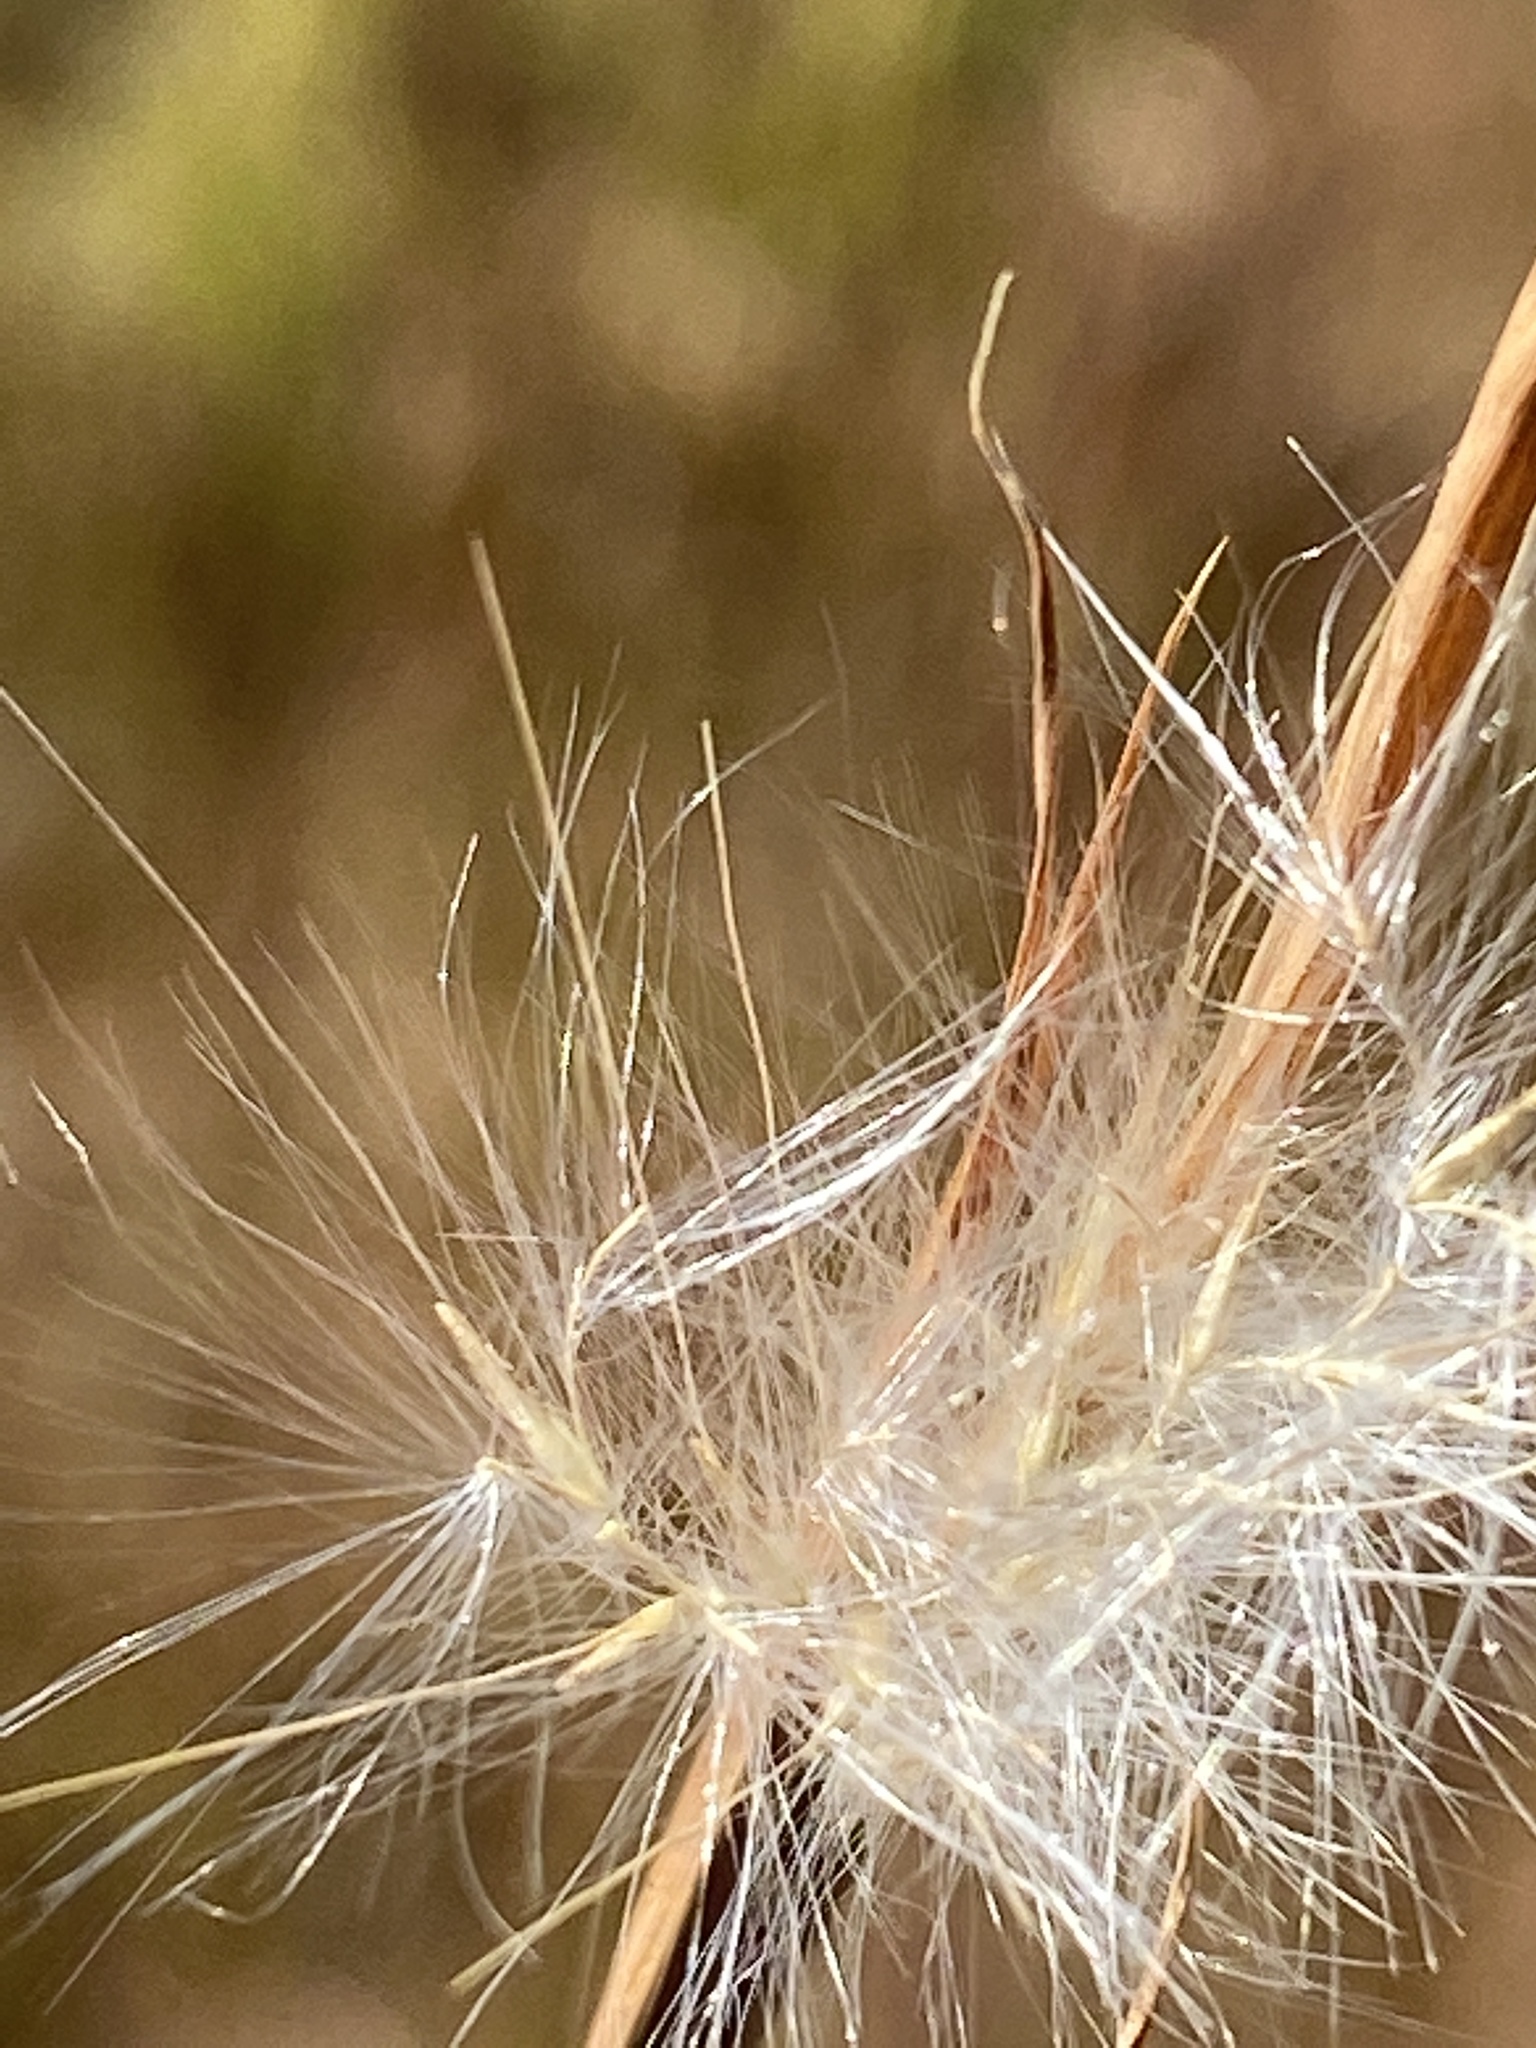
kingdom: Plantae
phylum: Tracheophyta
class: Liliopsida
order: Poales
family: Poaceae
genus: Andropogon
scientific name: Andropogon ternarius
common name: Split bluestem
